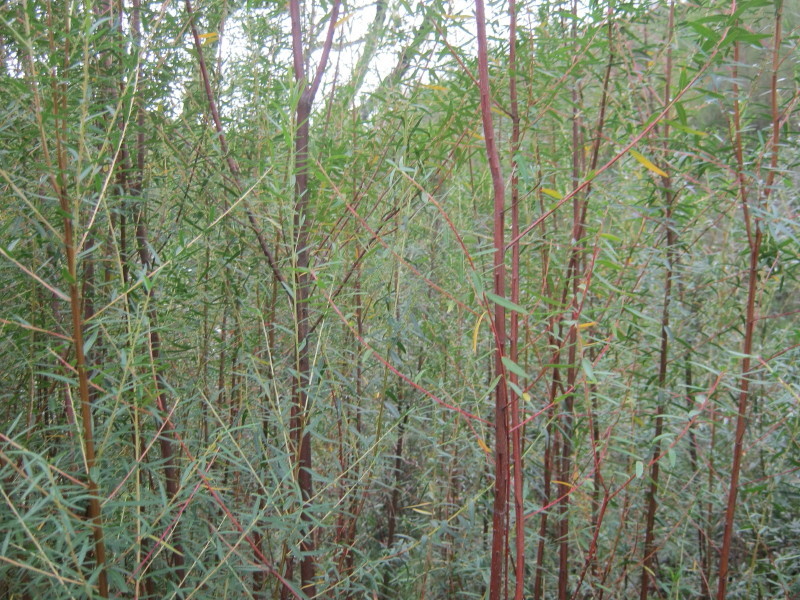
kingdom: Plantae
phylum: Tracheophyta
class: Magnoliopsida
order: Sapindales
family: Rutaceae
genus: Empleurum
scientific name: Empleurum unicapsulare
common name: False buchu
